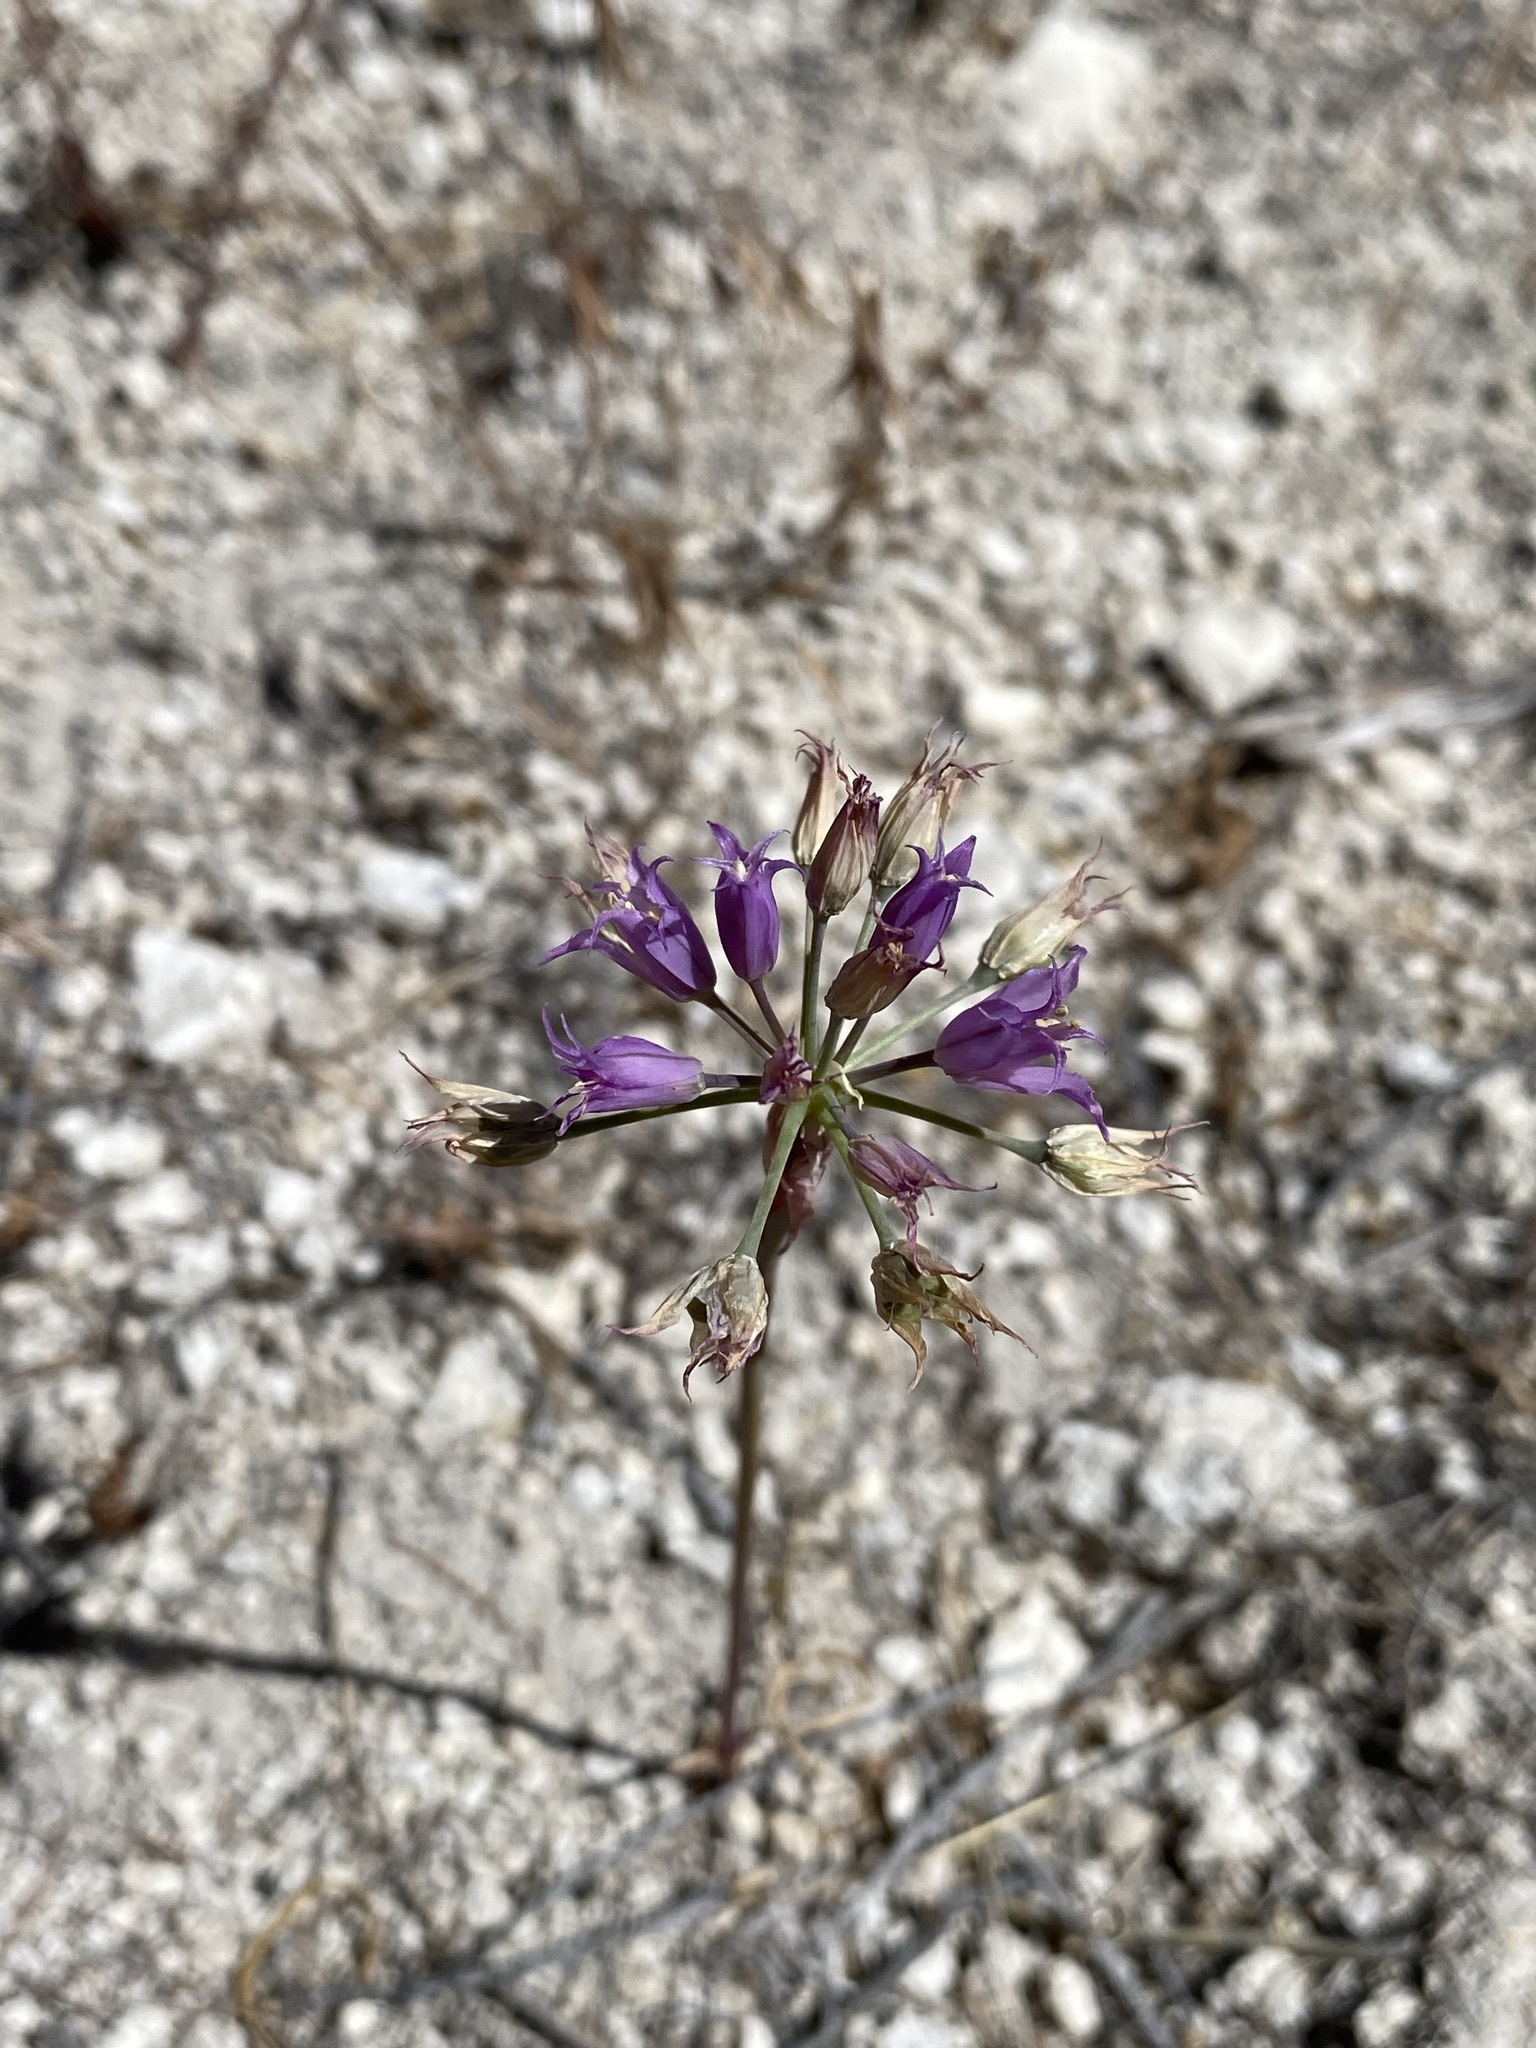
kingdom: Plantae
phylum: Tracheophyta
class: Liliopsida
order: Asparagales
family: Amaryllidaceae
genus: Allium
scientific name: Allium acuminatum
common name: Hooker's onion
